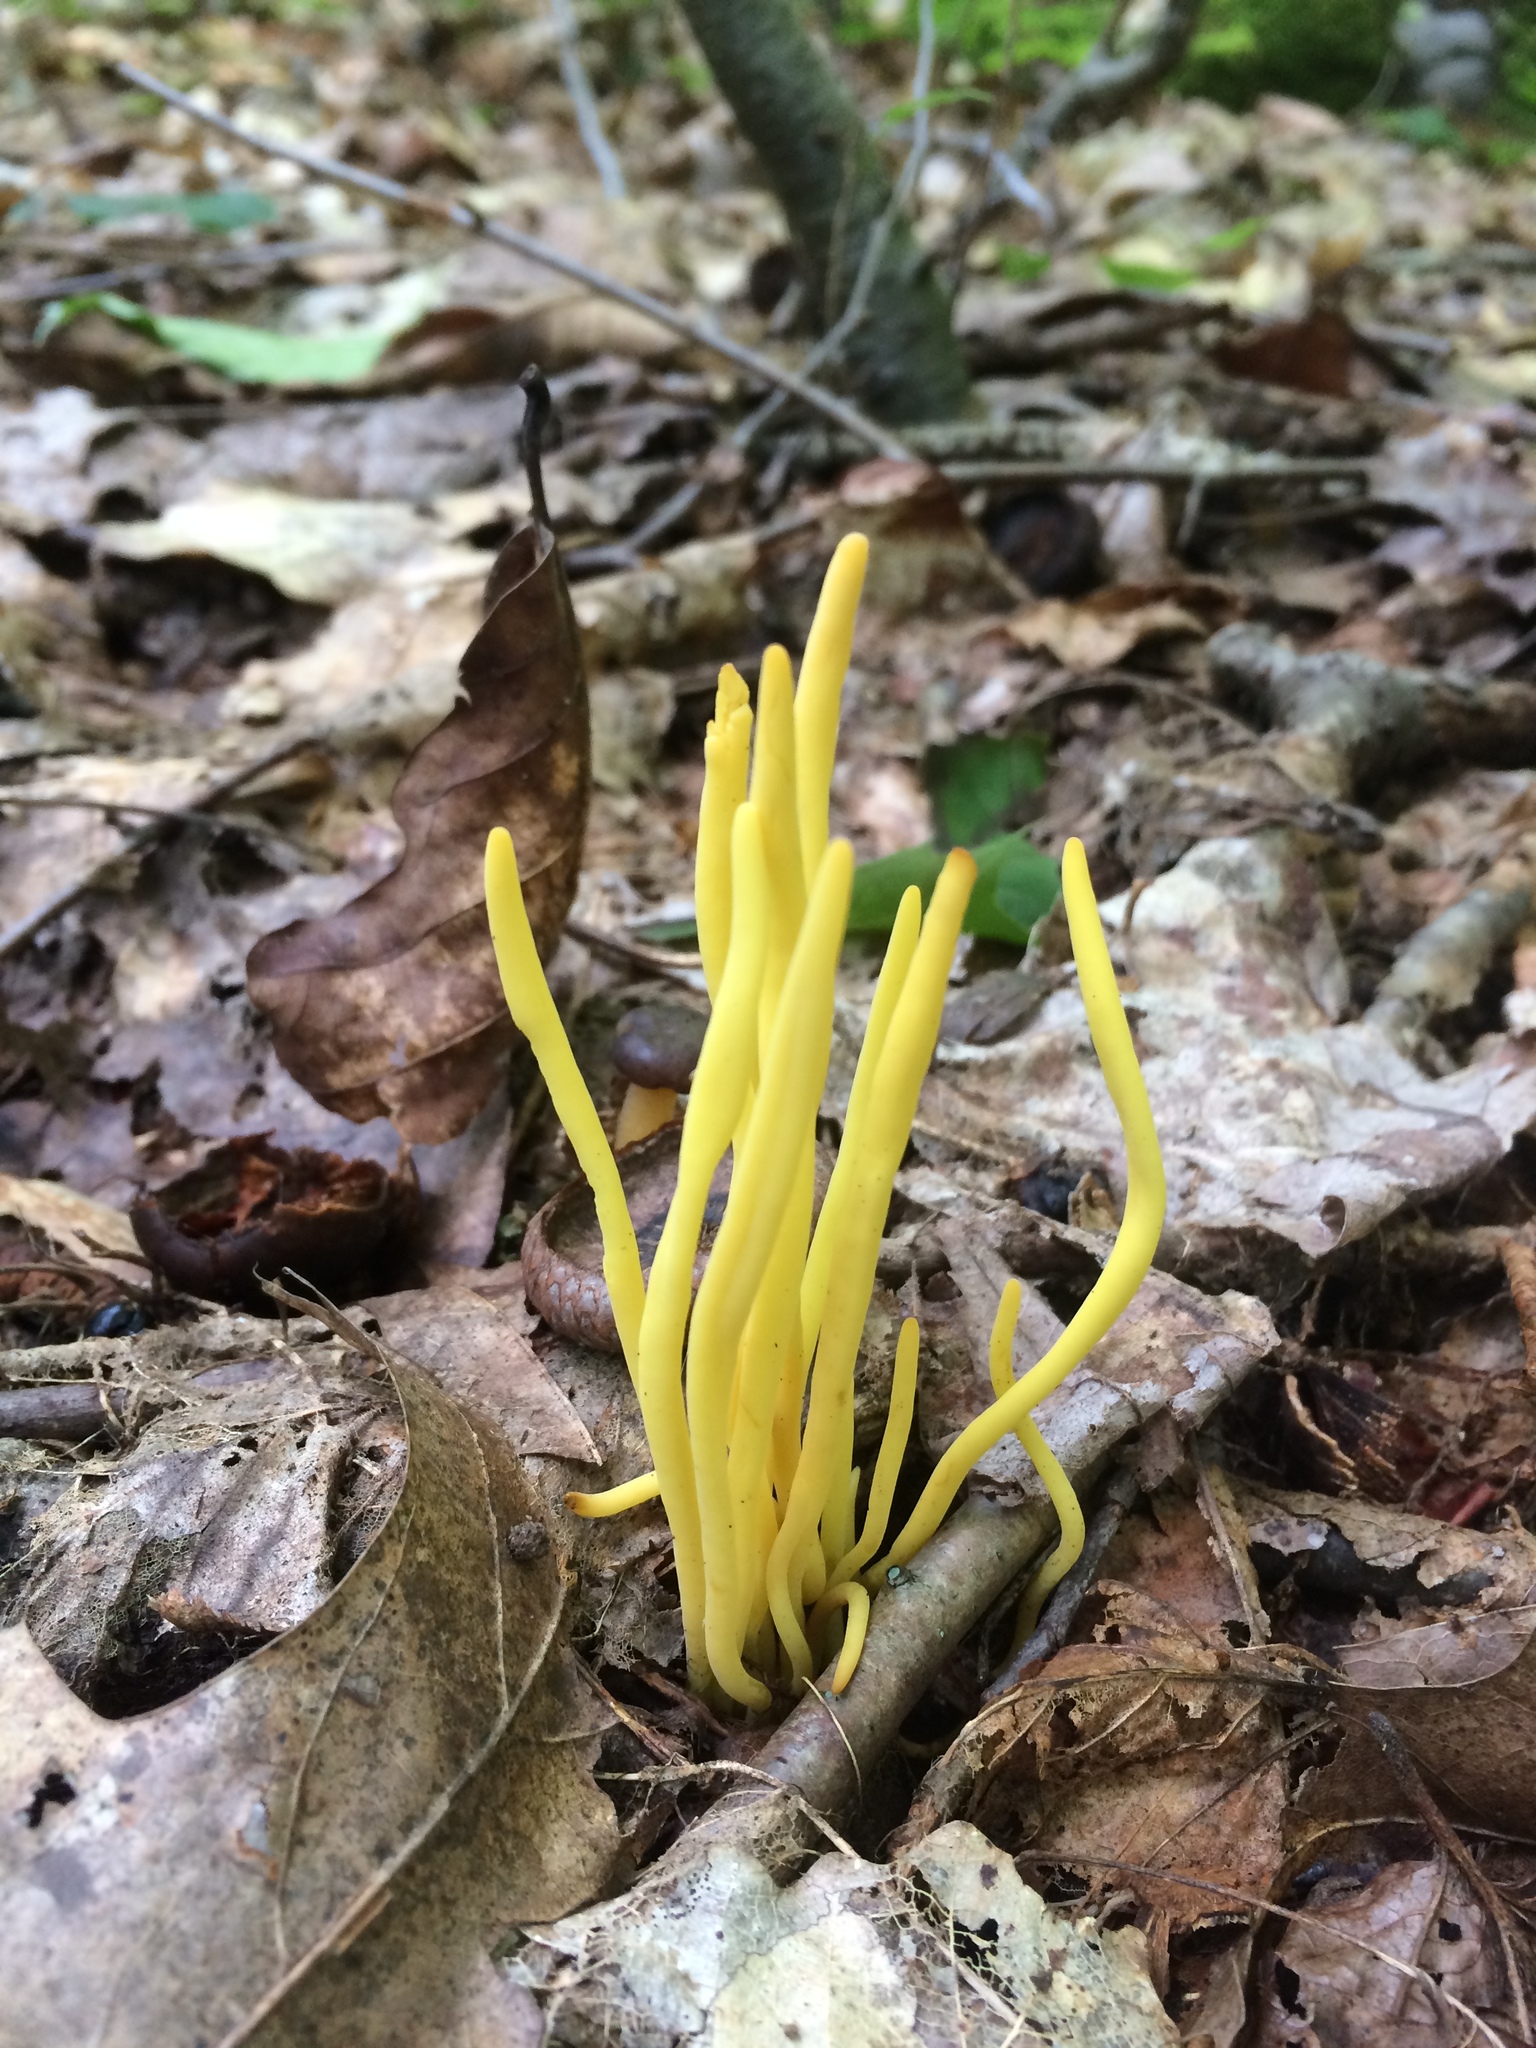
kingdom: Fungi
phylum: Basidiomycota
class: Agaricomycetes
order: Agaricales
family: Clavariaceae
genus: Clavulinopsis
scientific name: Clavulinopsis fusiformis
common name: Golden spindles
